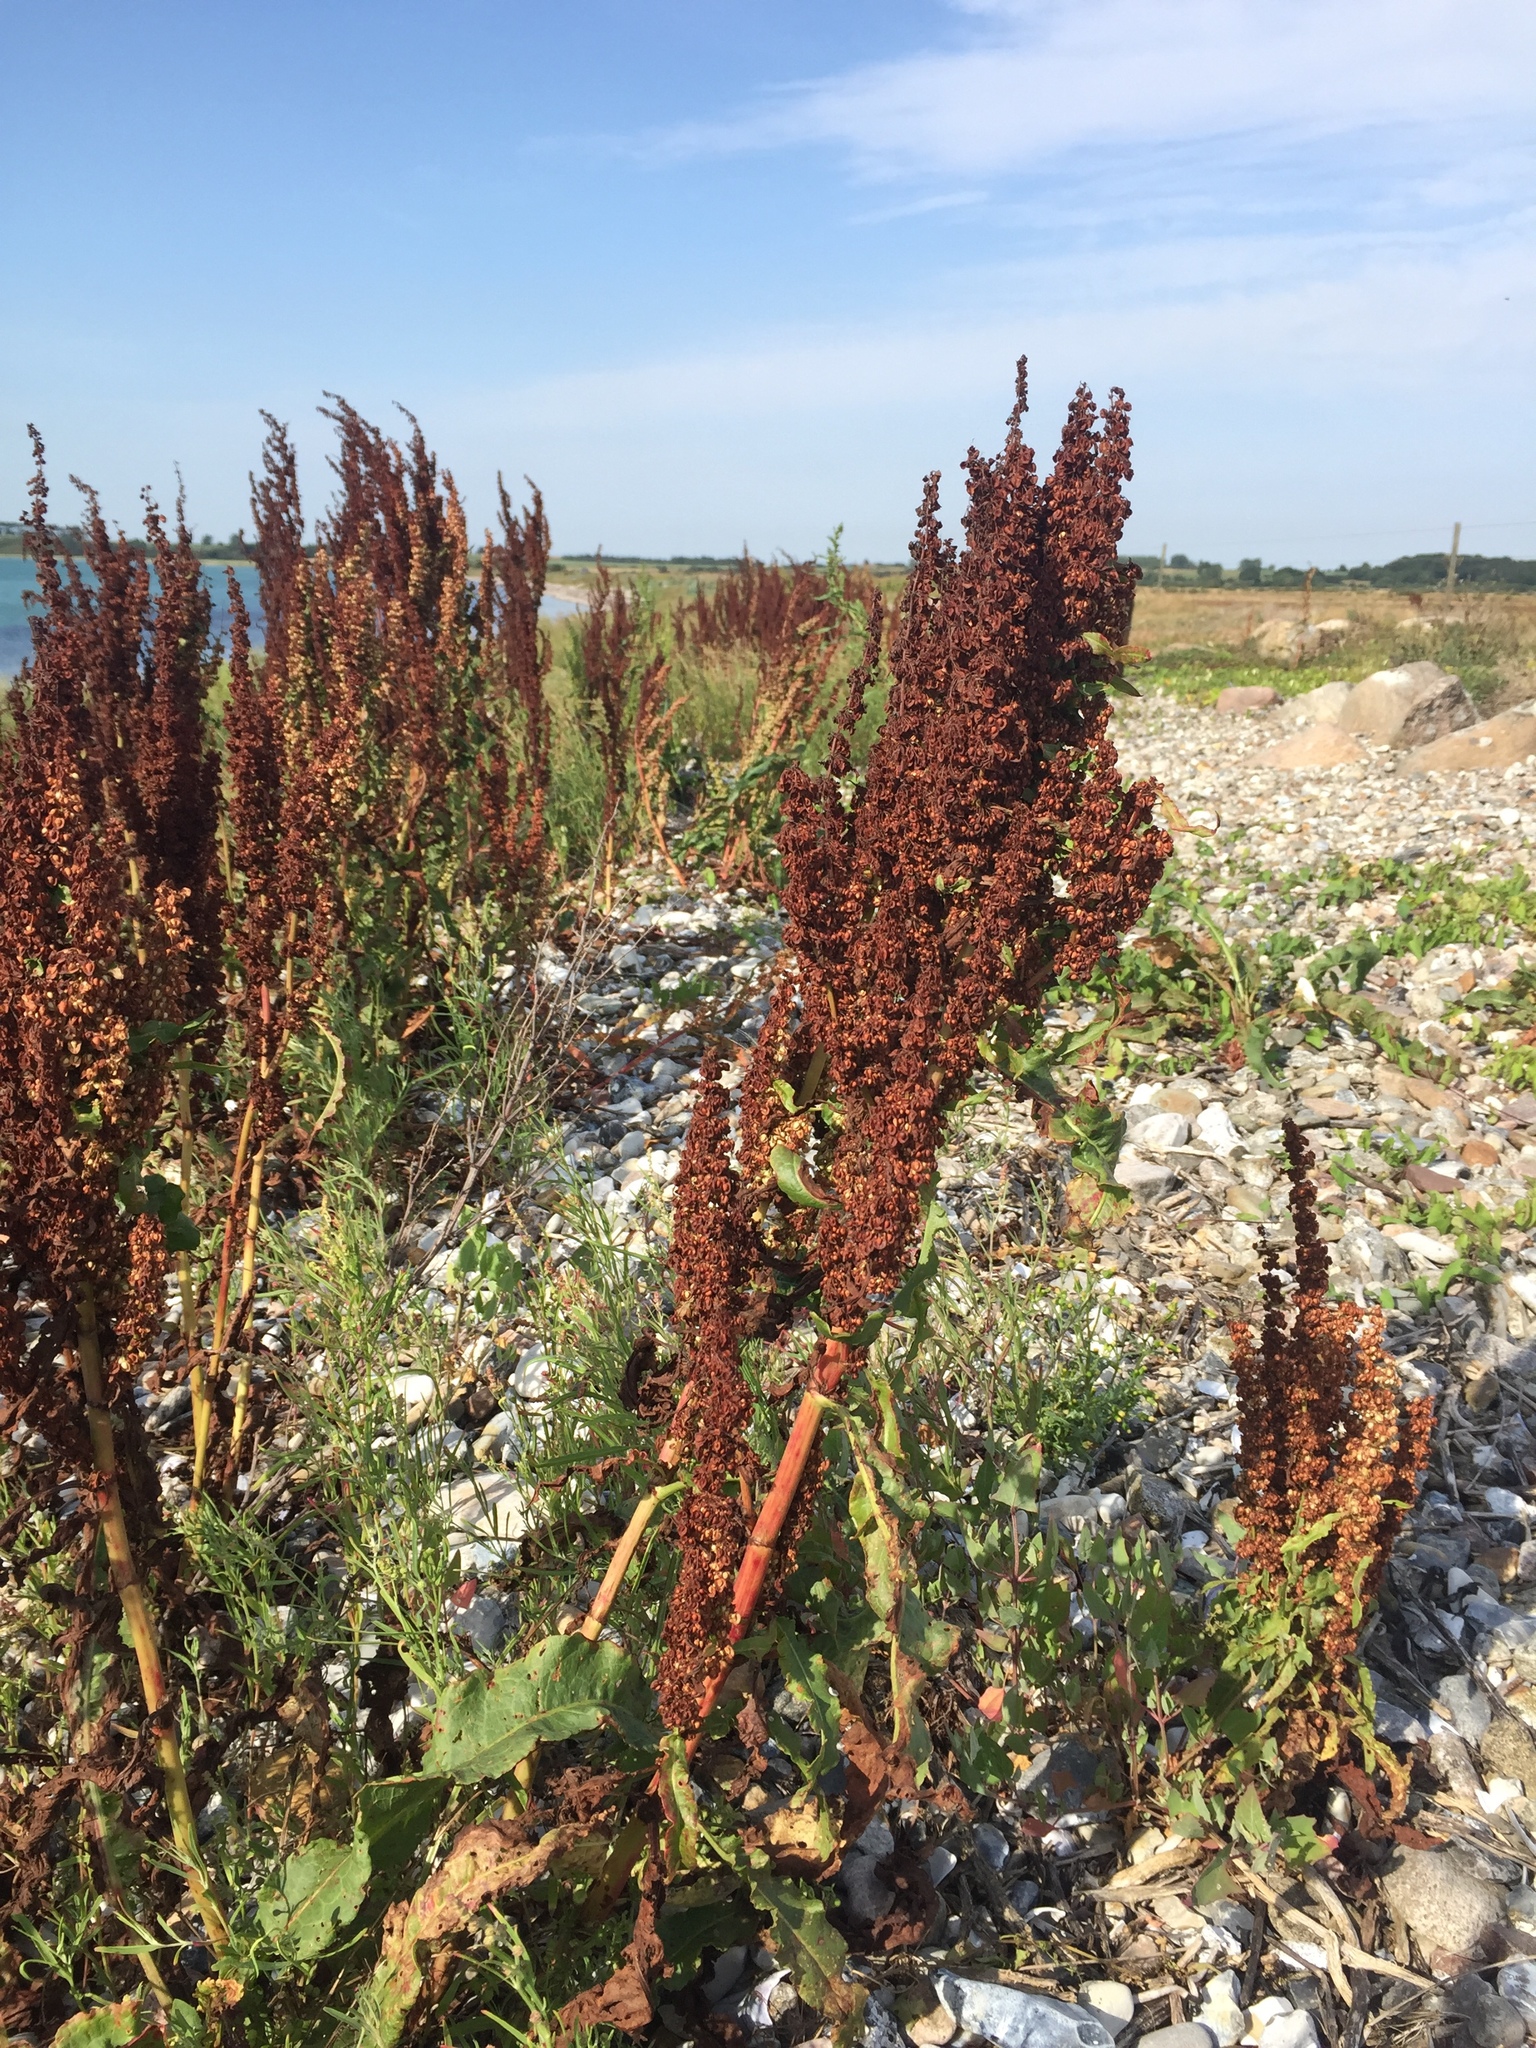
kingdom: Plantae
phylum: Tracheophyta
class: Magnoliopsida
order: Caryophyllales
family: Polygonaceae
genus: Rumex
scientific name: Rumex crispus
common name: Curled dock
